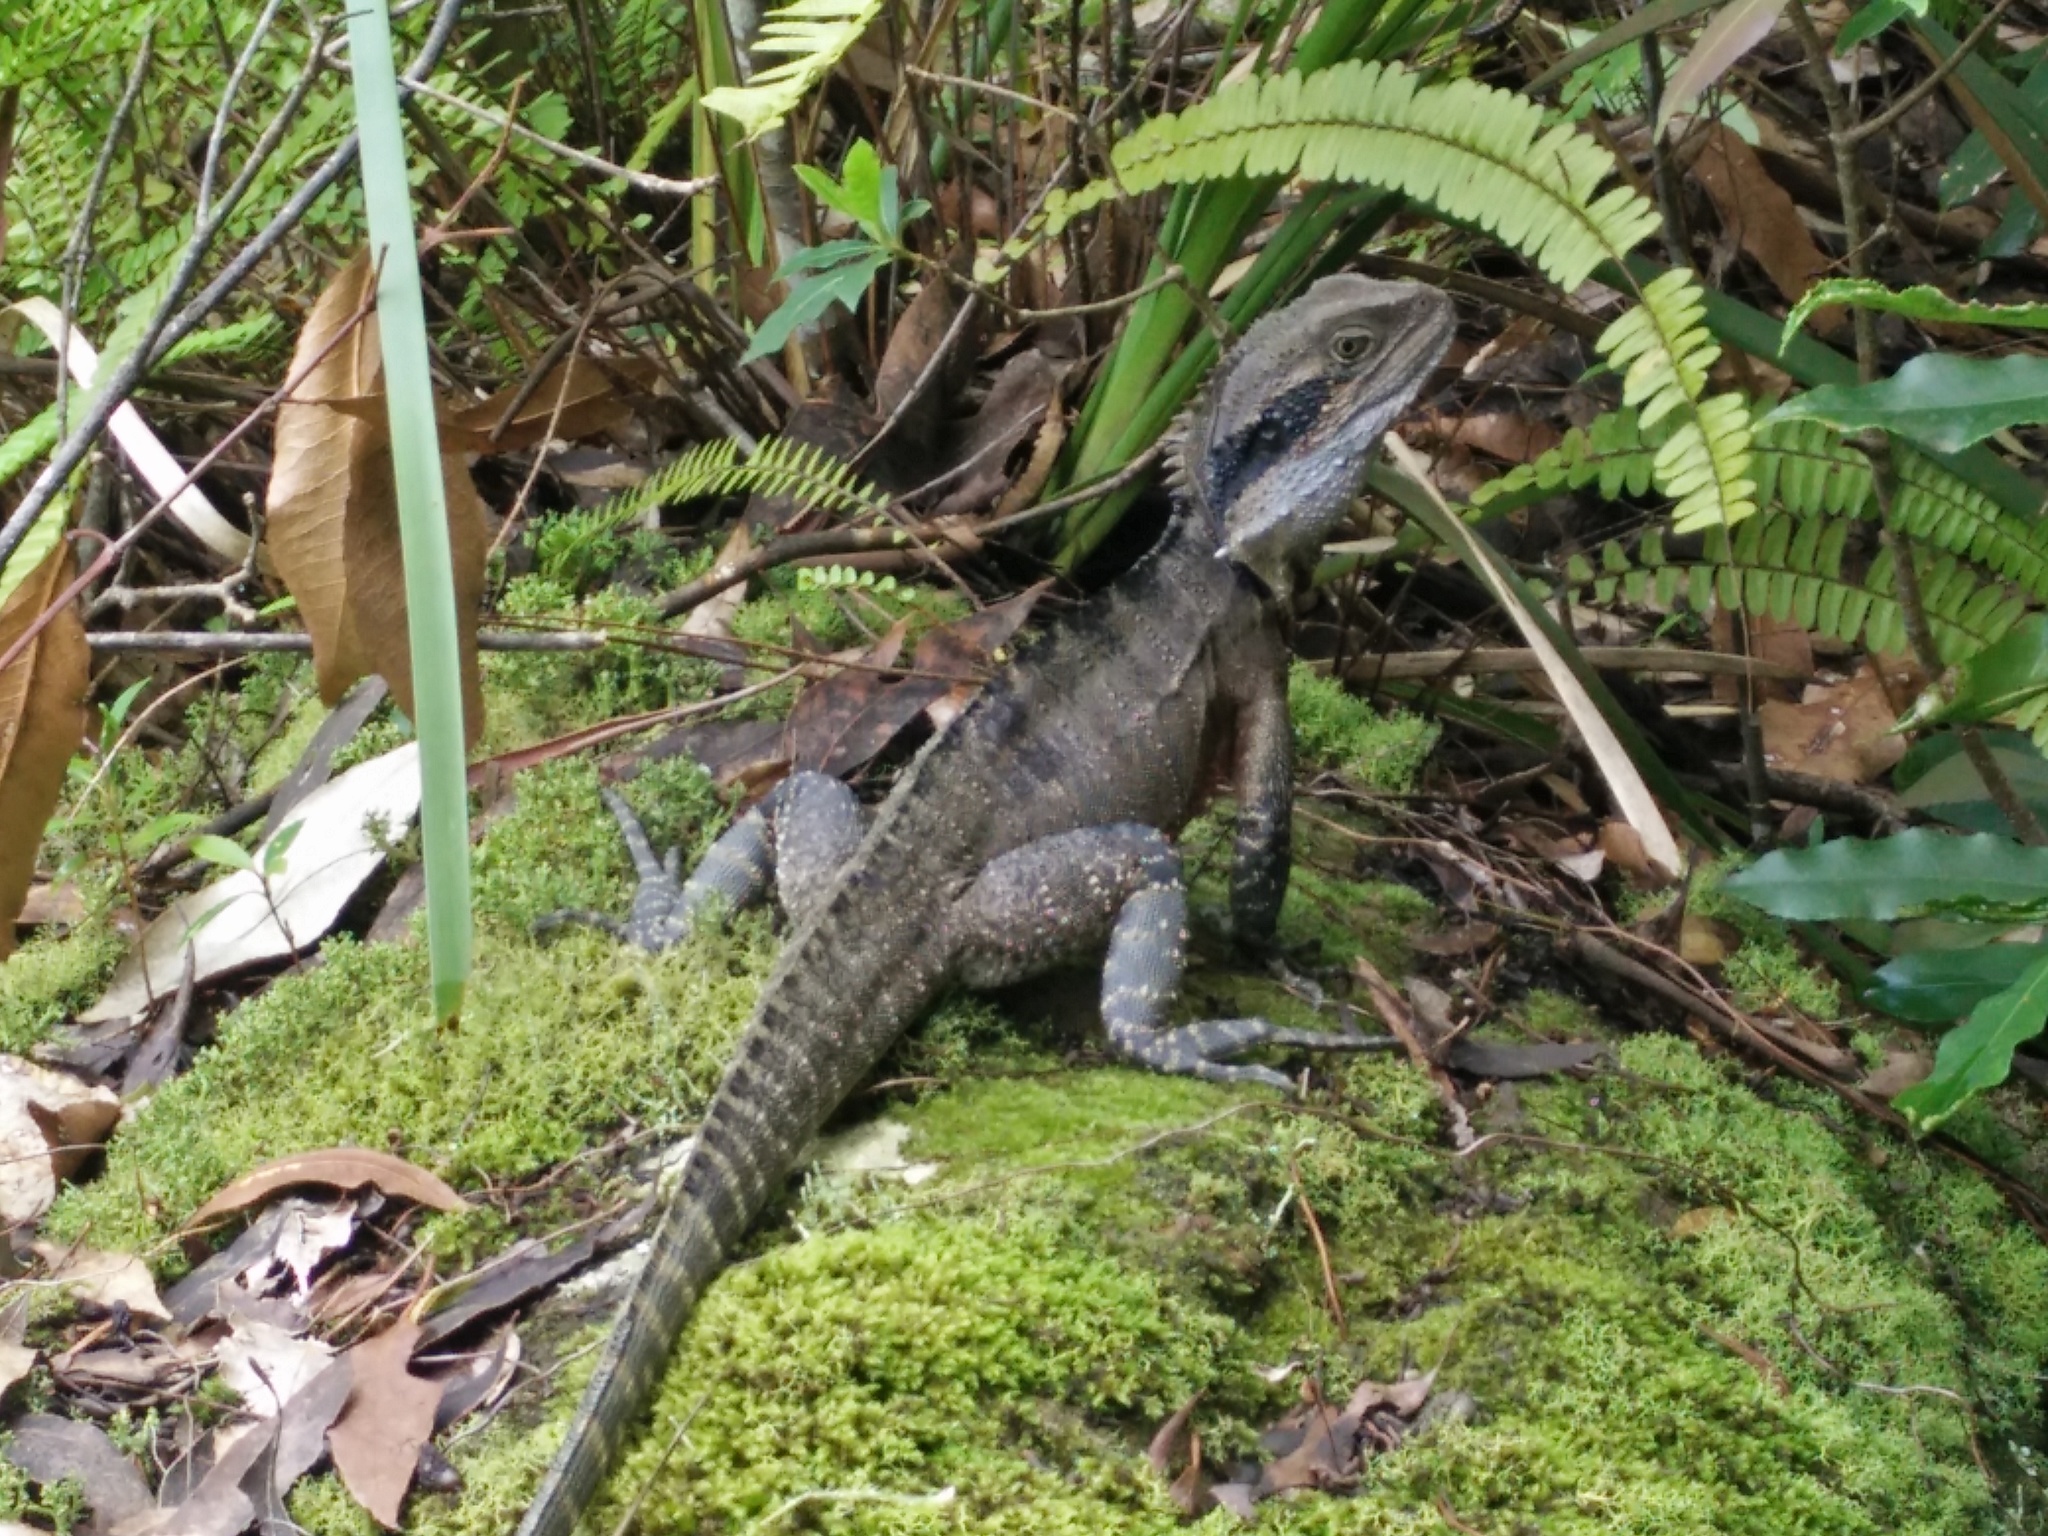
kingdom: Animalia
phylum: Chordata
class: Squamata
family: Agamidae
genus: Intellagama
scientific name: Intellagama lesueurii
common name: Eastern water dragon
